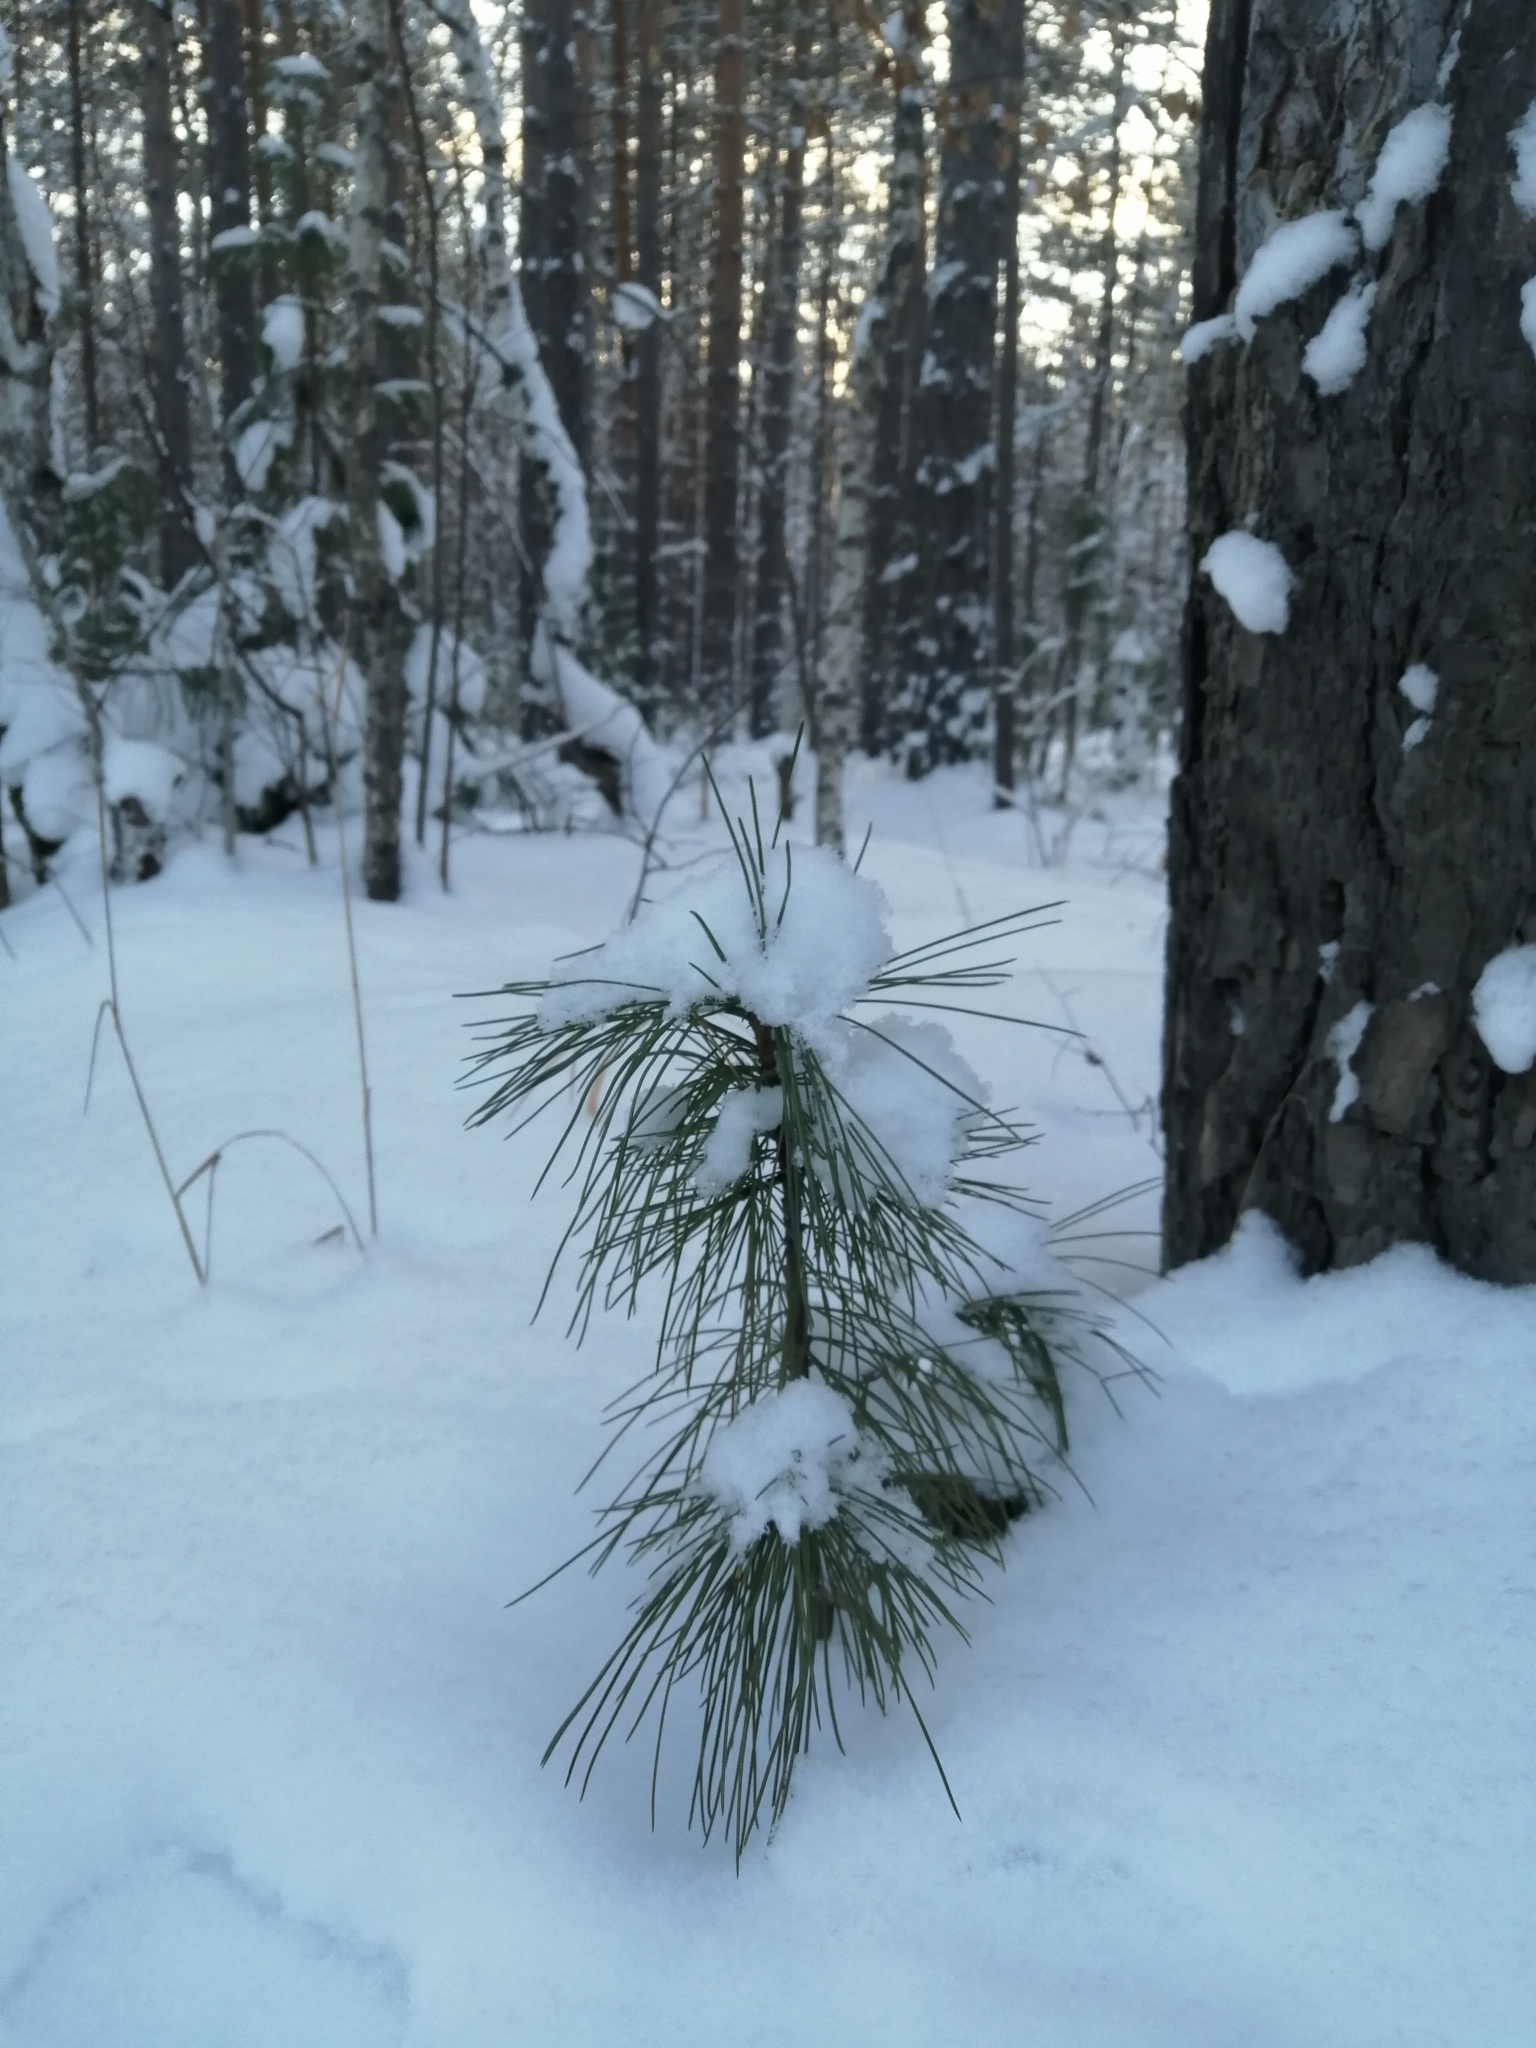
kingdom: Plantae
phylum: Tracheophyta
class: Pinopsida
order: Pinales
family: Pinaceae
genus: Pinus
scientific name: Pinus sibirica
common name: Siberian pine
